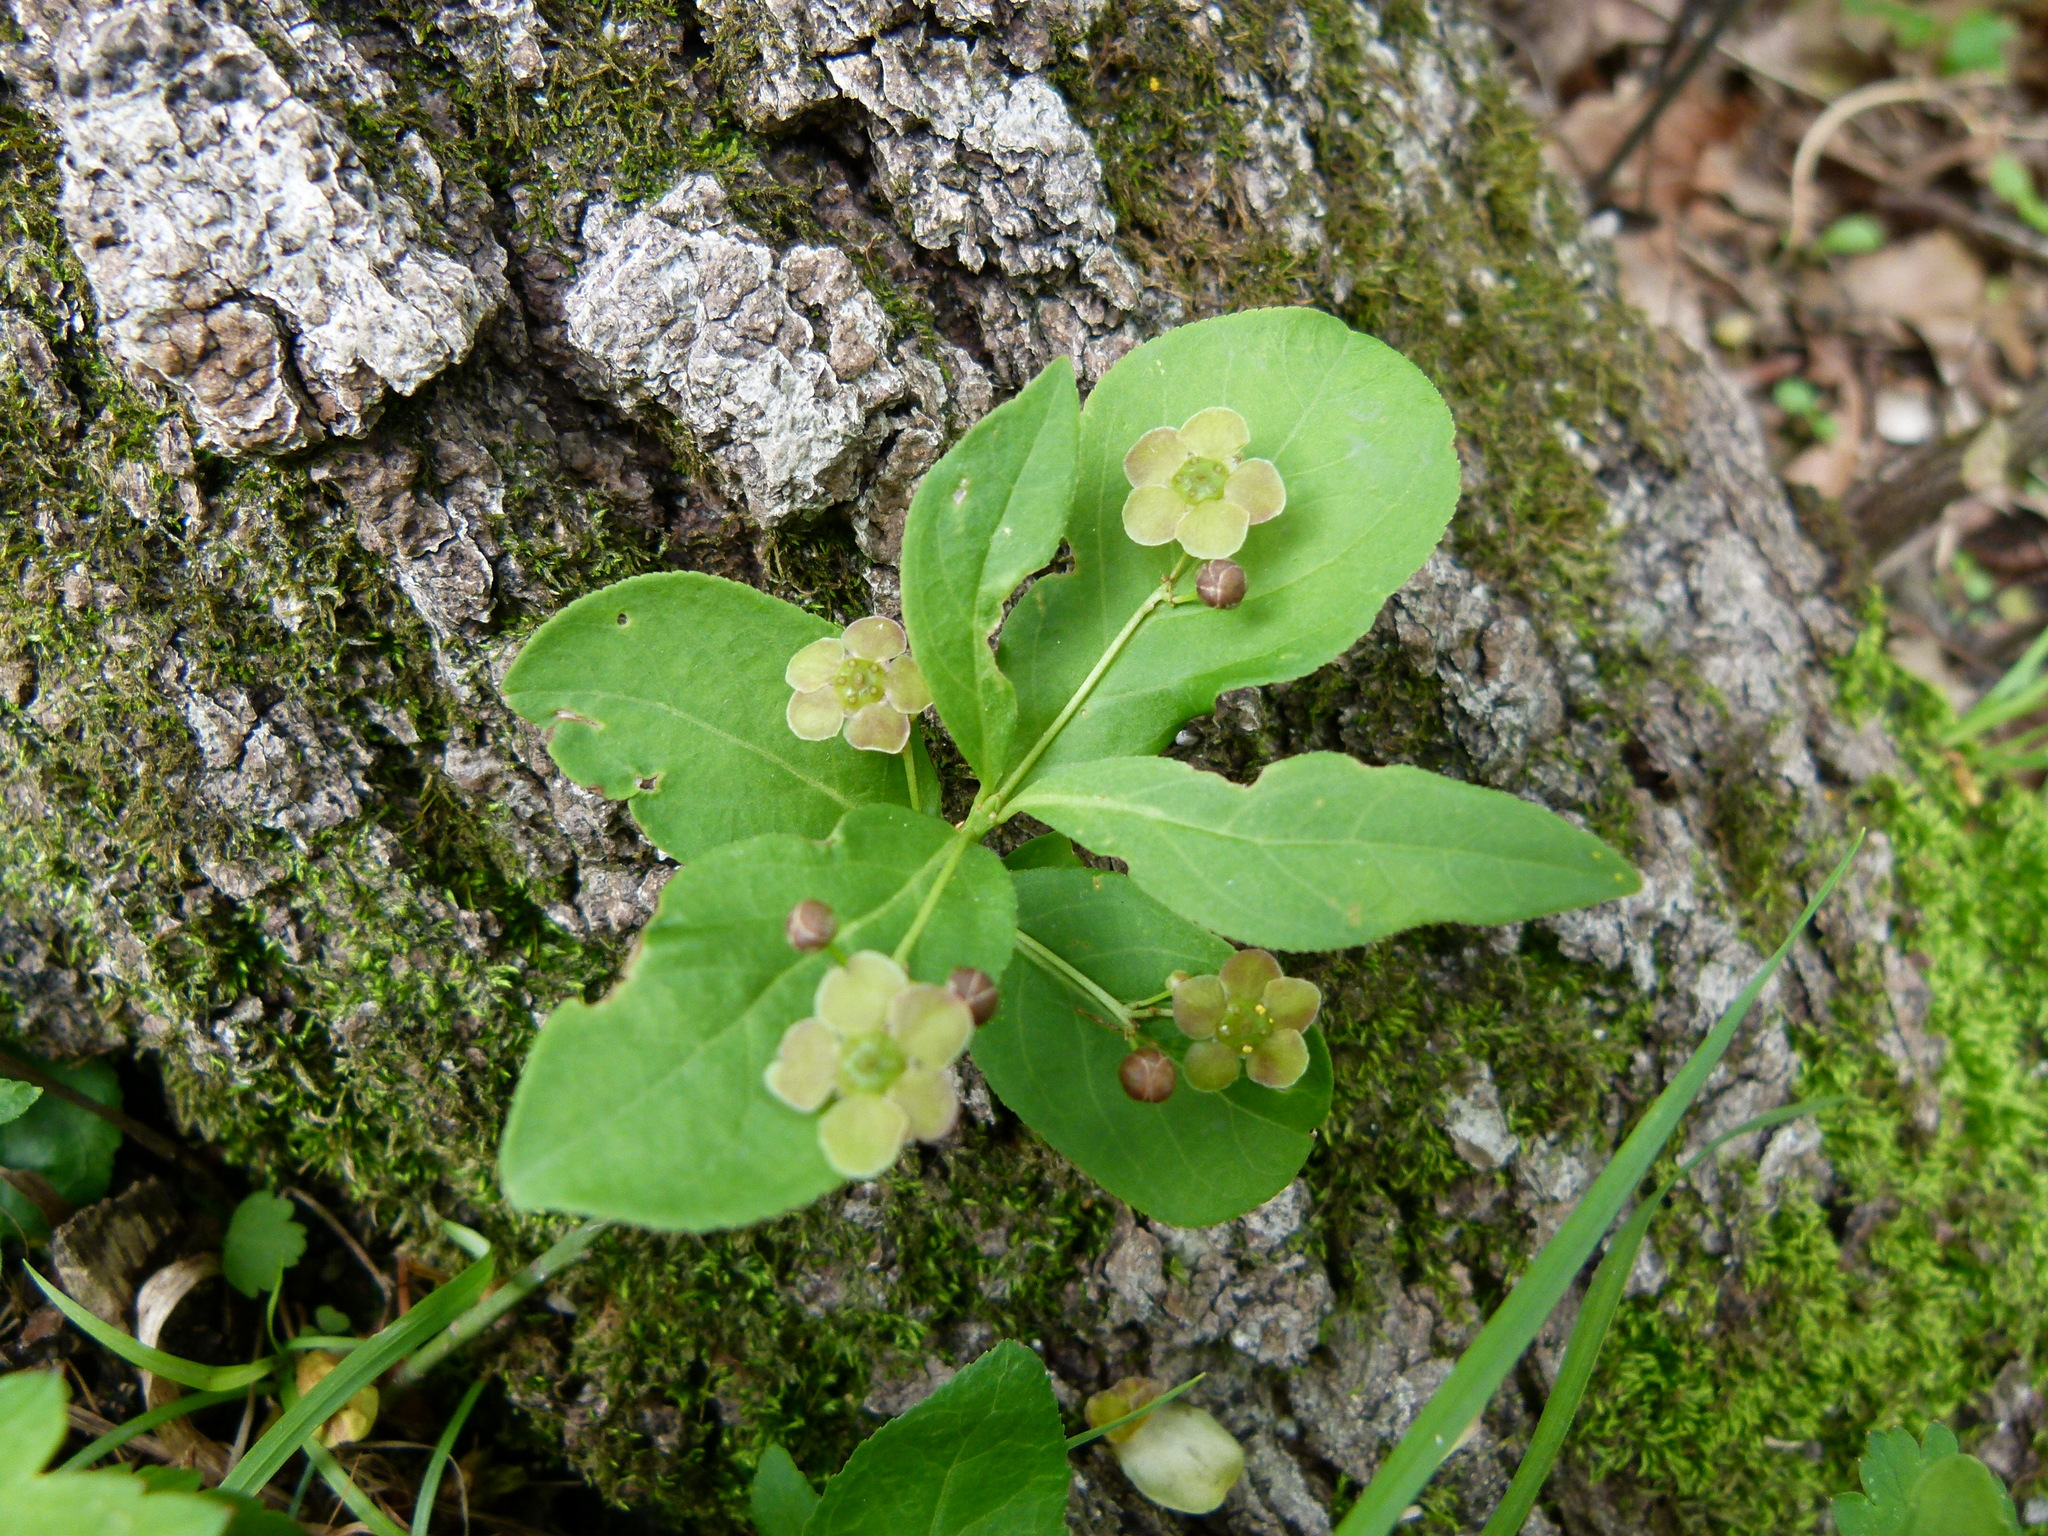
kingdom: Plantae
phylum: Tracheophyta
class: Magnoliopsida
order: Celastrales
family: Celastraceae
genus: Euonymus
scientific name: Euonymus obovatus
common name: Running strawberry-bush
